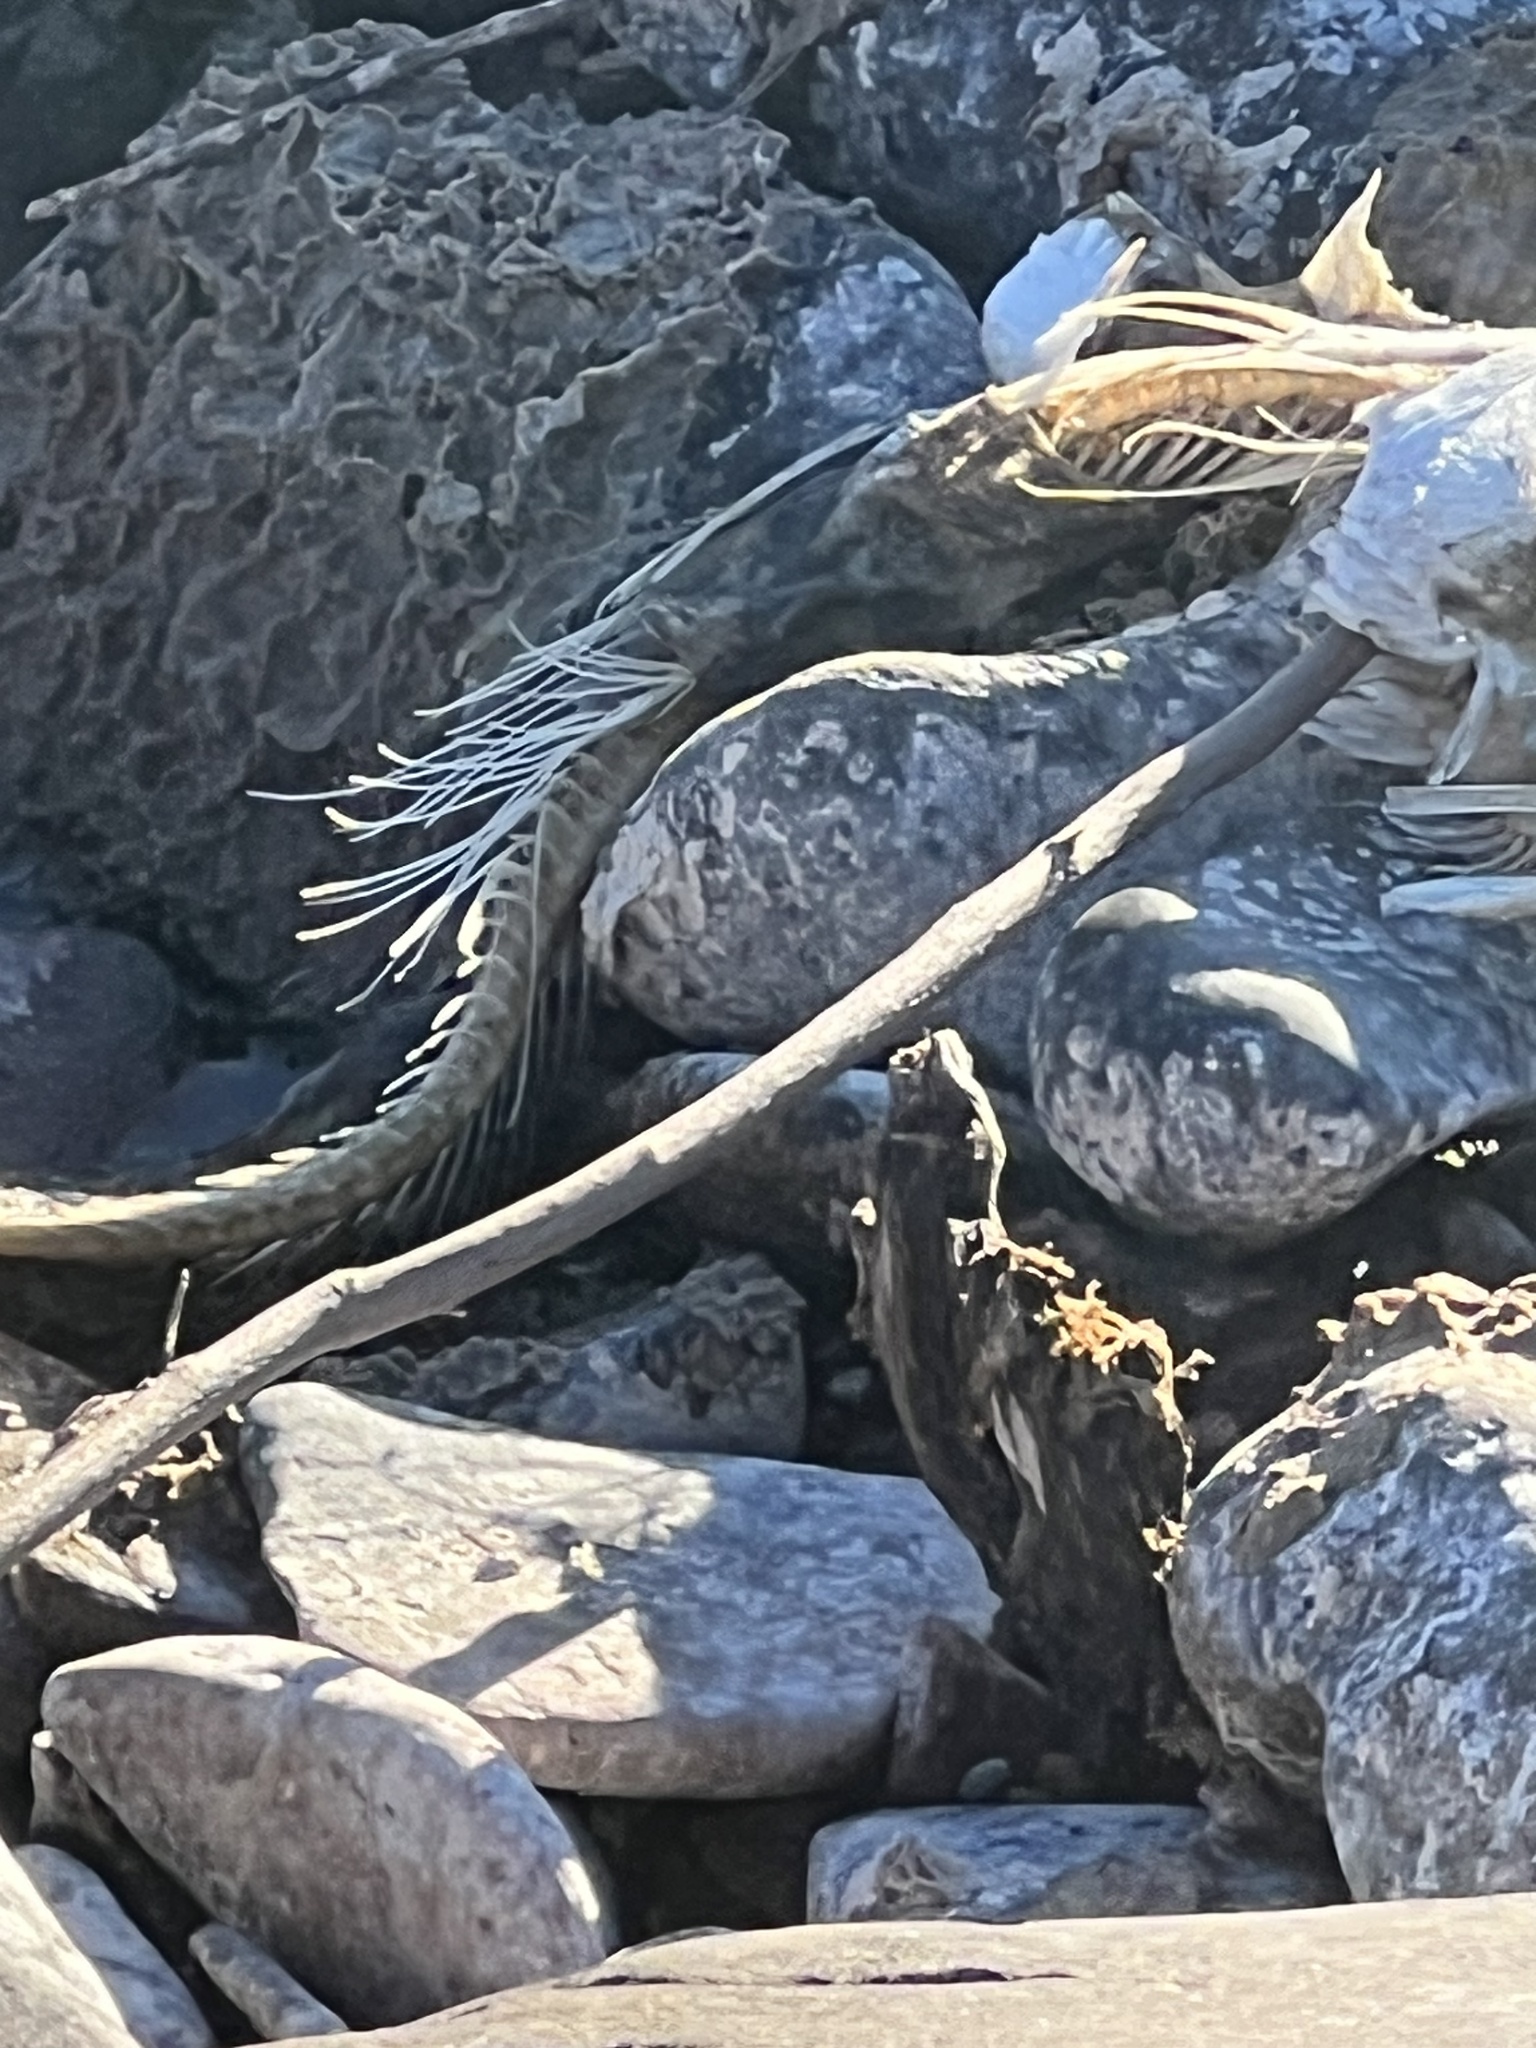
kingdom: Animalia
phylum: Chordata
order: Salmoniformes
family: Salmonidae
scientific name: Salmonidae
